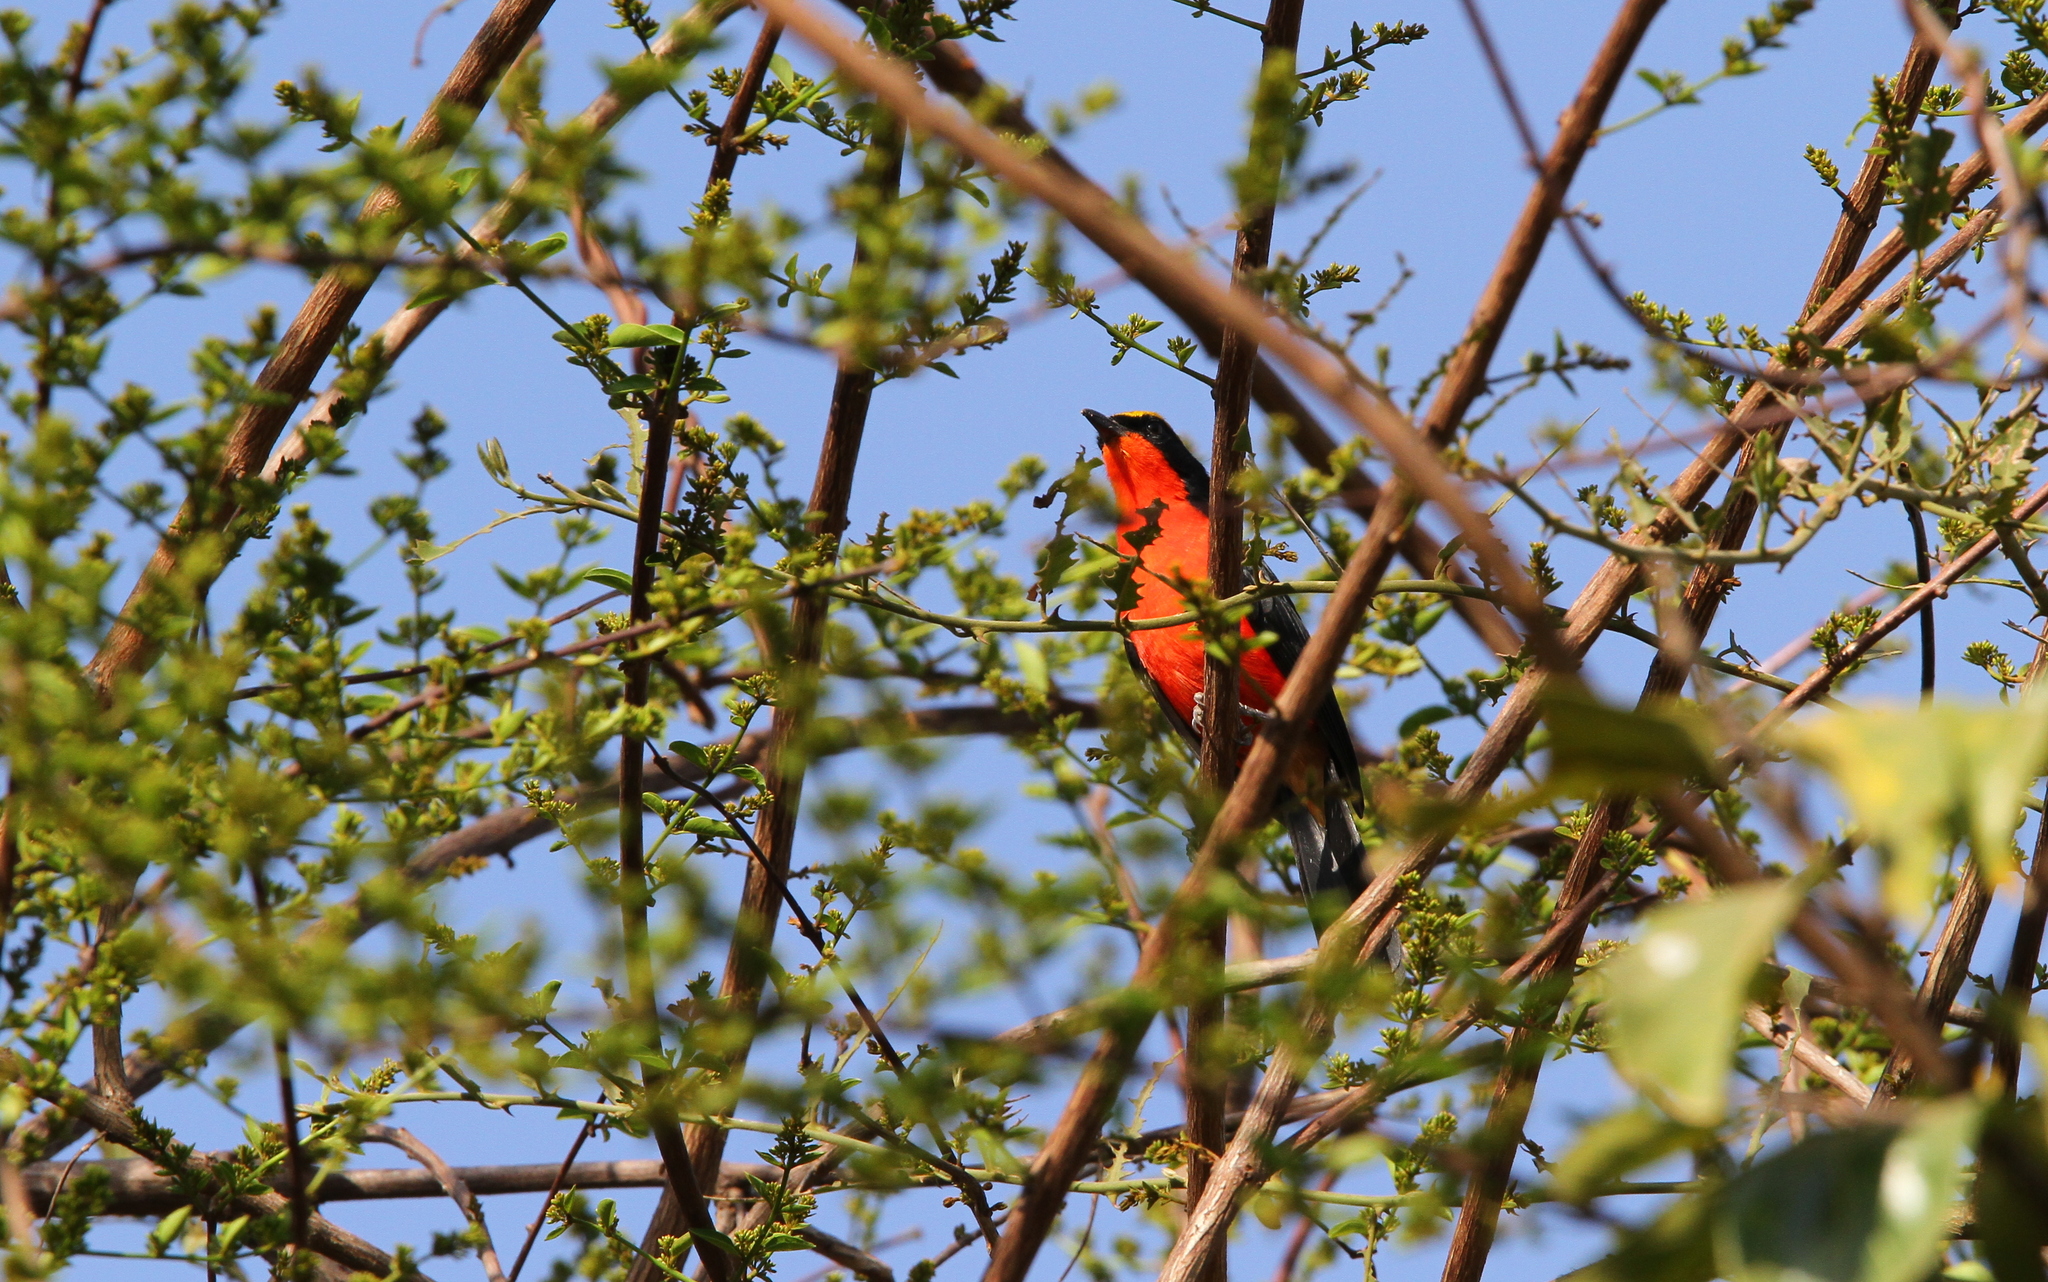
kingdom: Animalia
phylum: Chordata
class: Aves
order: Passeriformes
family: Malaconotidae
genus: Laniarius
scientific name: Laniarius barbarus
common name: Yellow-crowned gonolek
